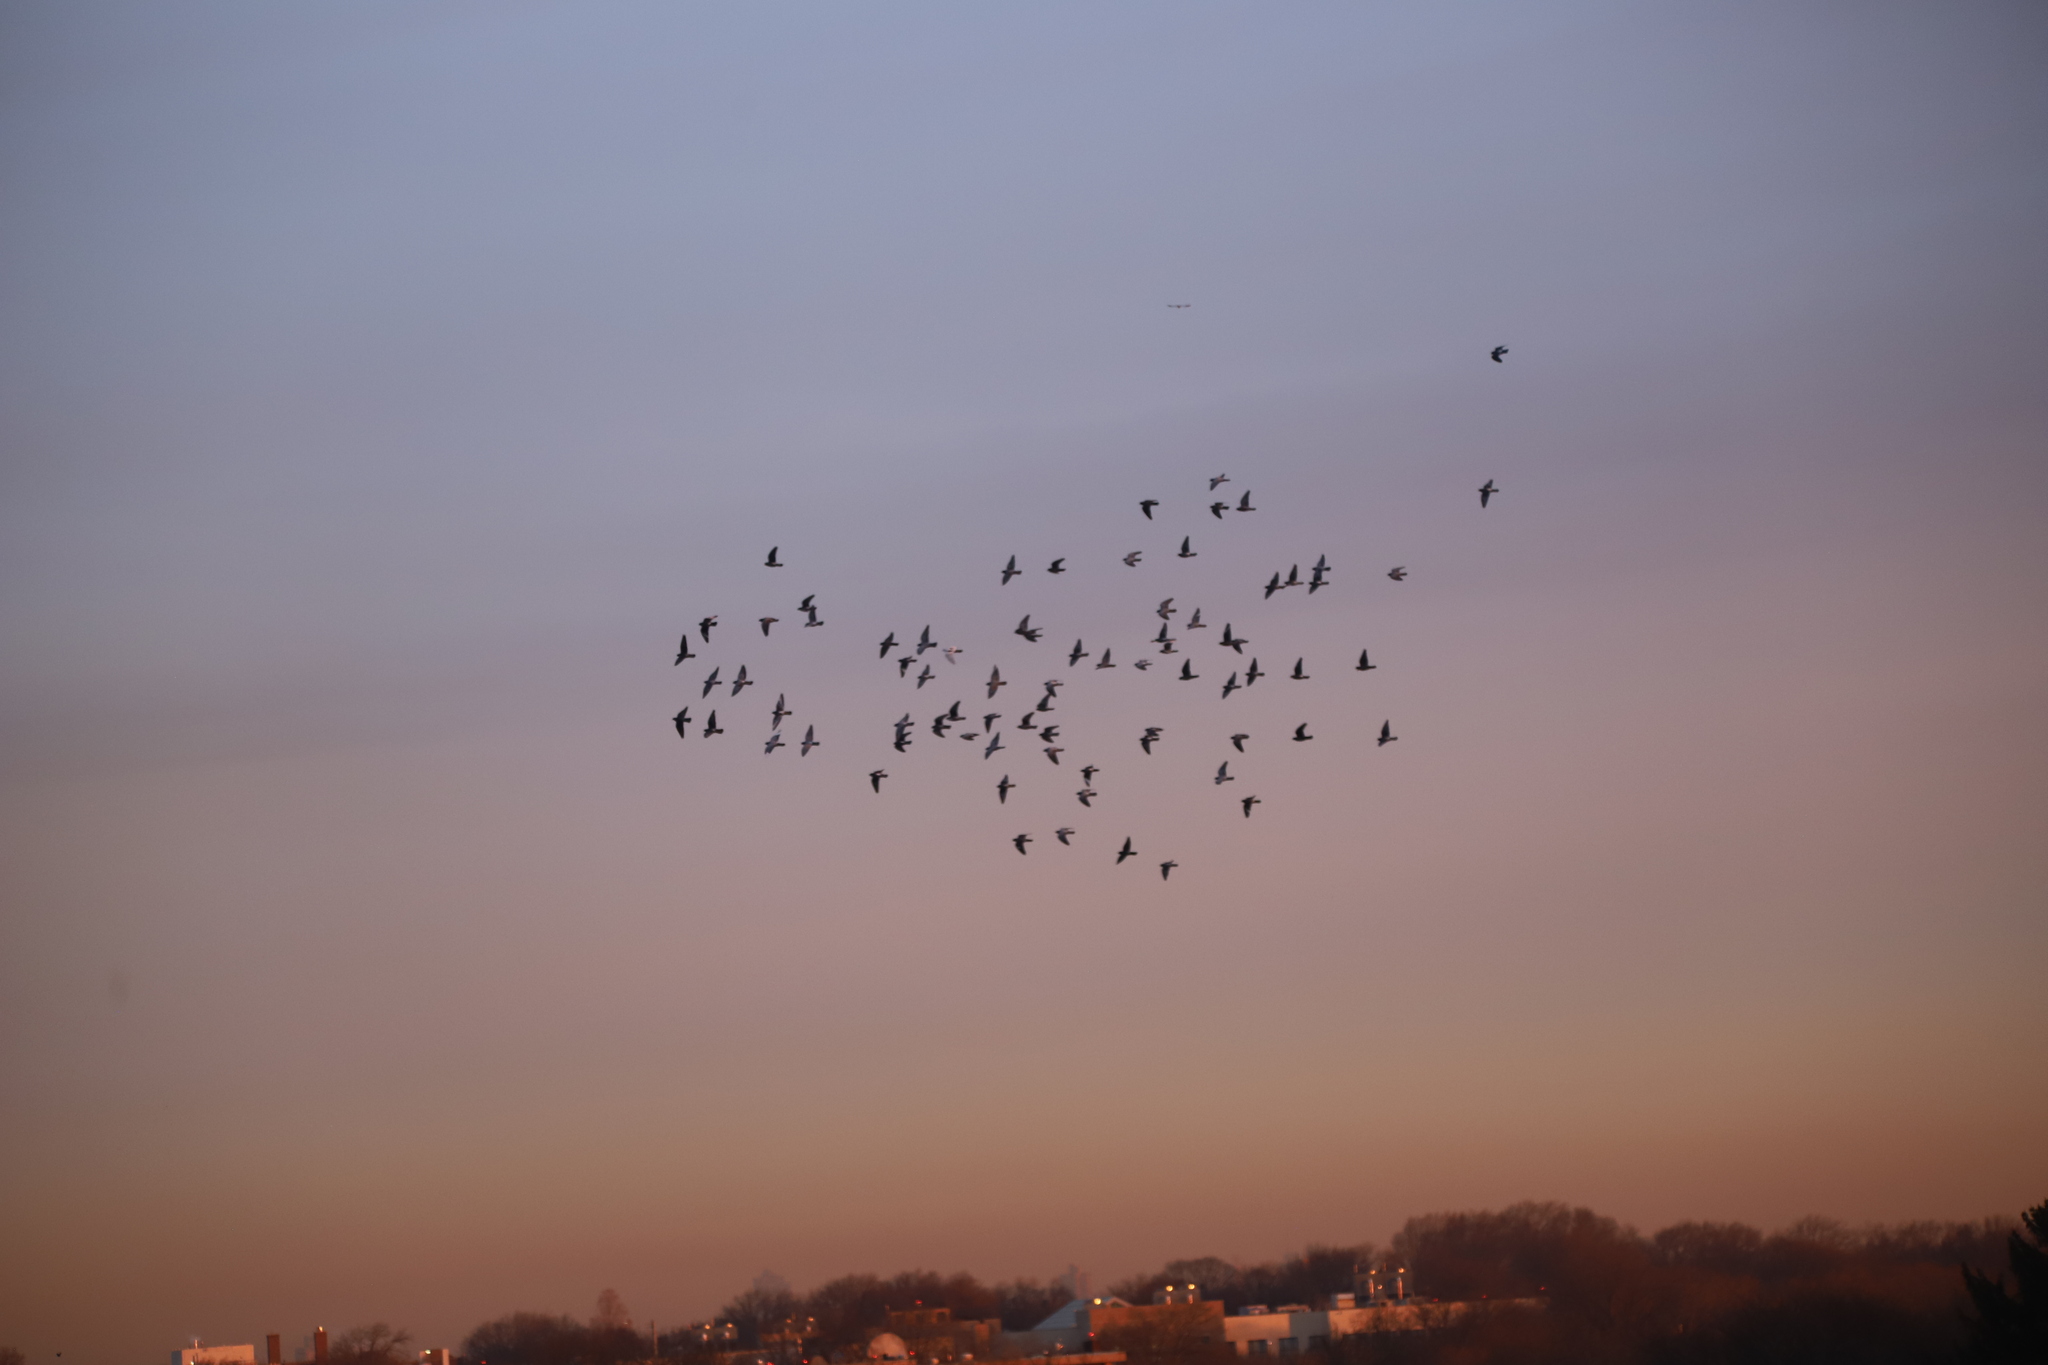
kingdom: Animalia
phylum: Chordata
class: Aves
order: Columbiformes
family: Columbidae
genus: Columba
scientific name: Columba livia
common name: Rock pigeon
